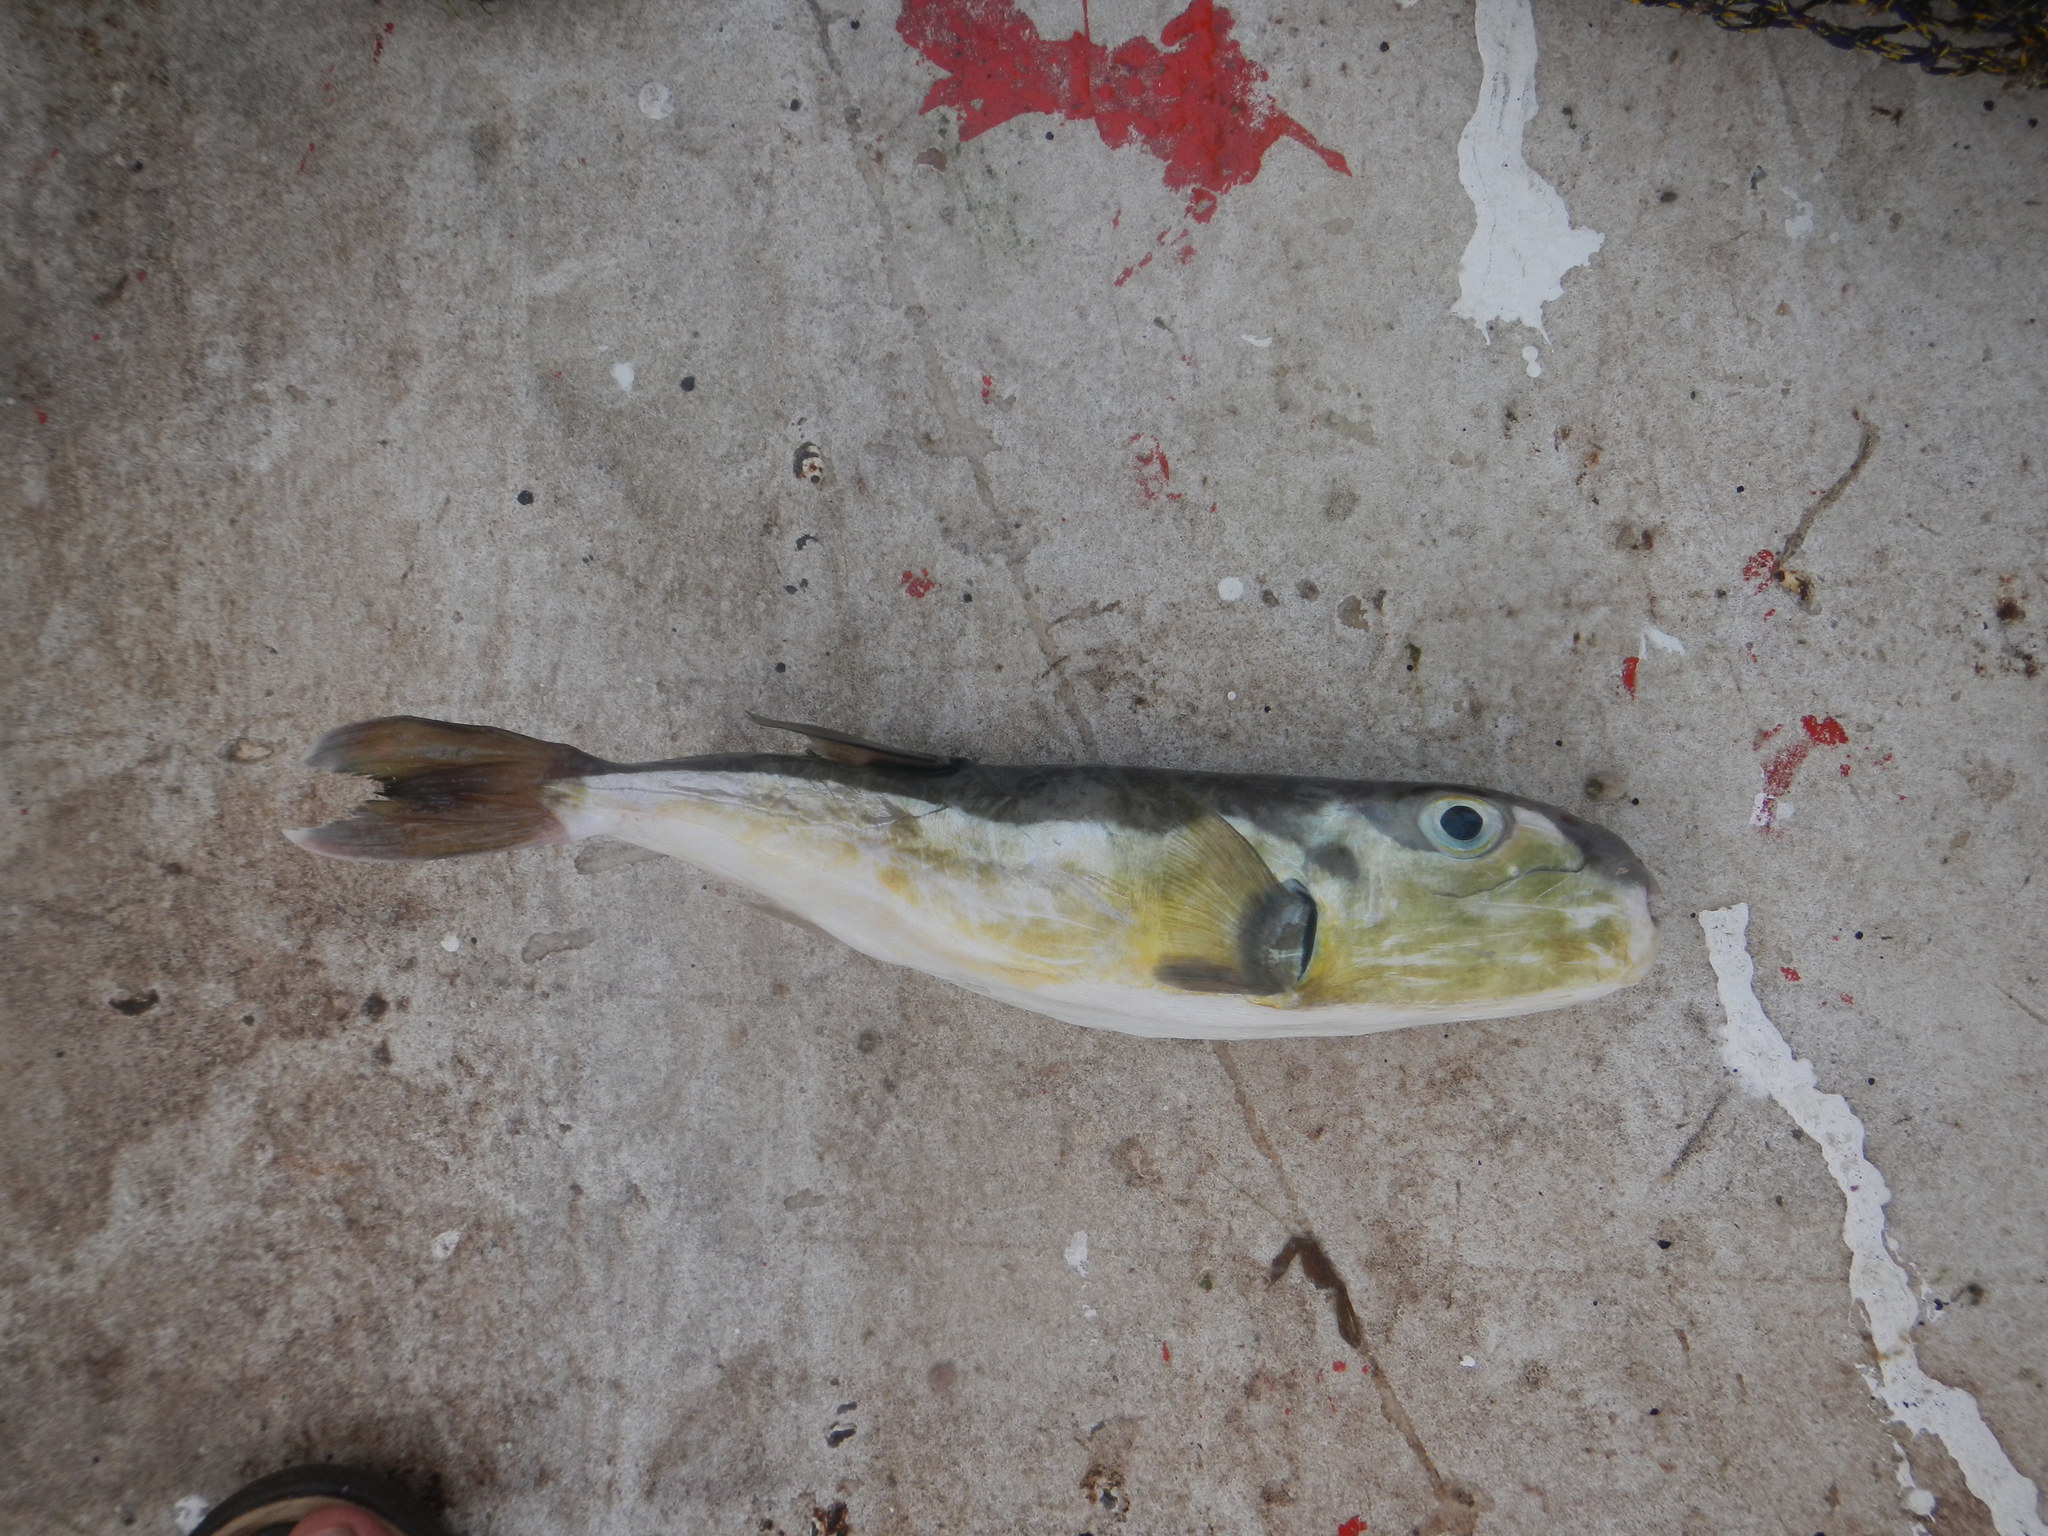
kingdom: Animalia
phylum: Chordata
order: Tetraodontiformes
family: Tetraodontidae
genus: Lagocephalus
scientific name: Lagocephalus laevigatus
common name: Puffer
